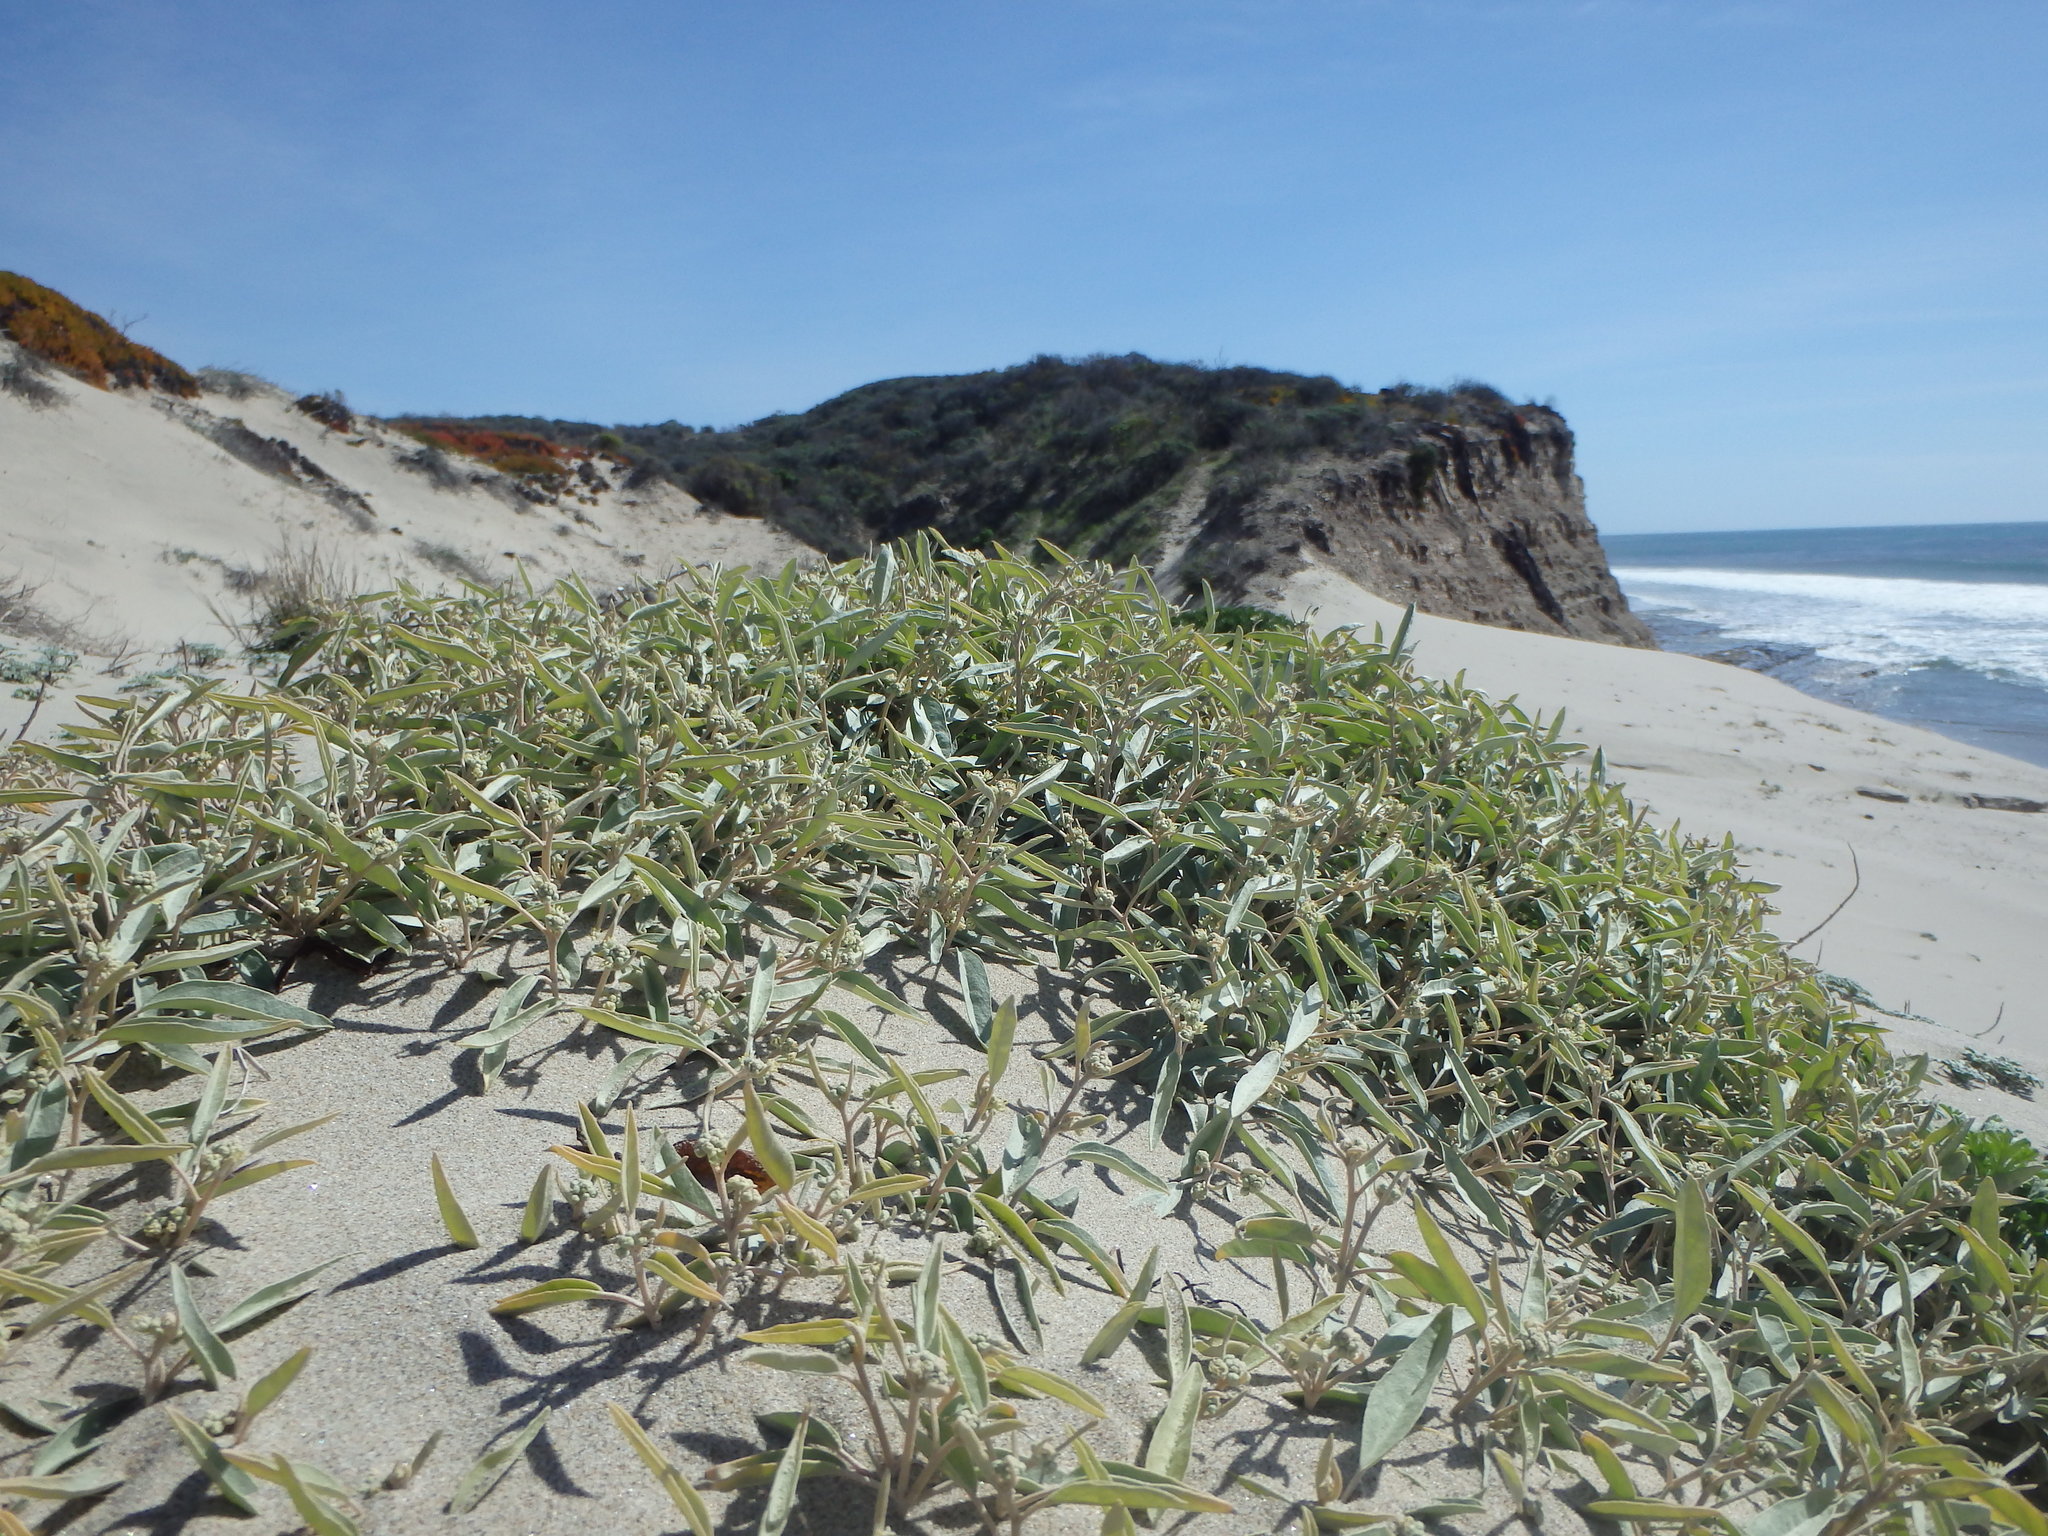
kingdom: Plantae
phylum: Tracheophyta
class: Magnoliopsida
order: Malpighiales
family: Euphorbiaceae
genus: Croton
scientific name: Croton californicus
